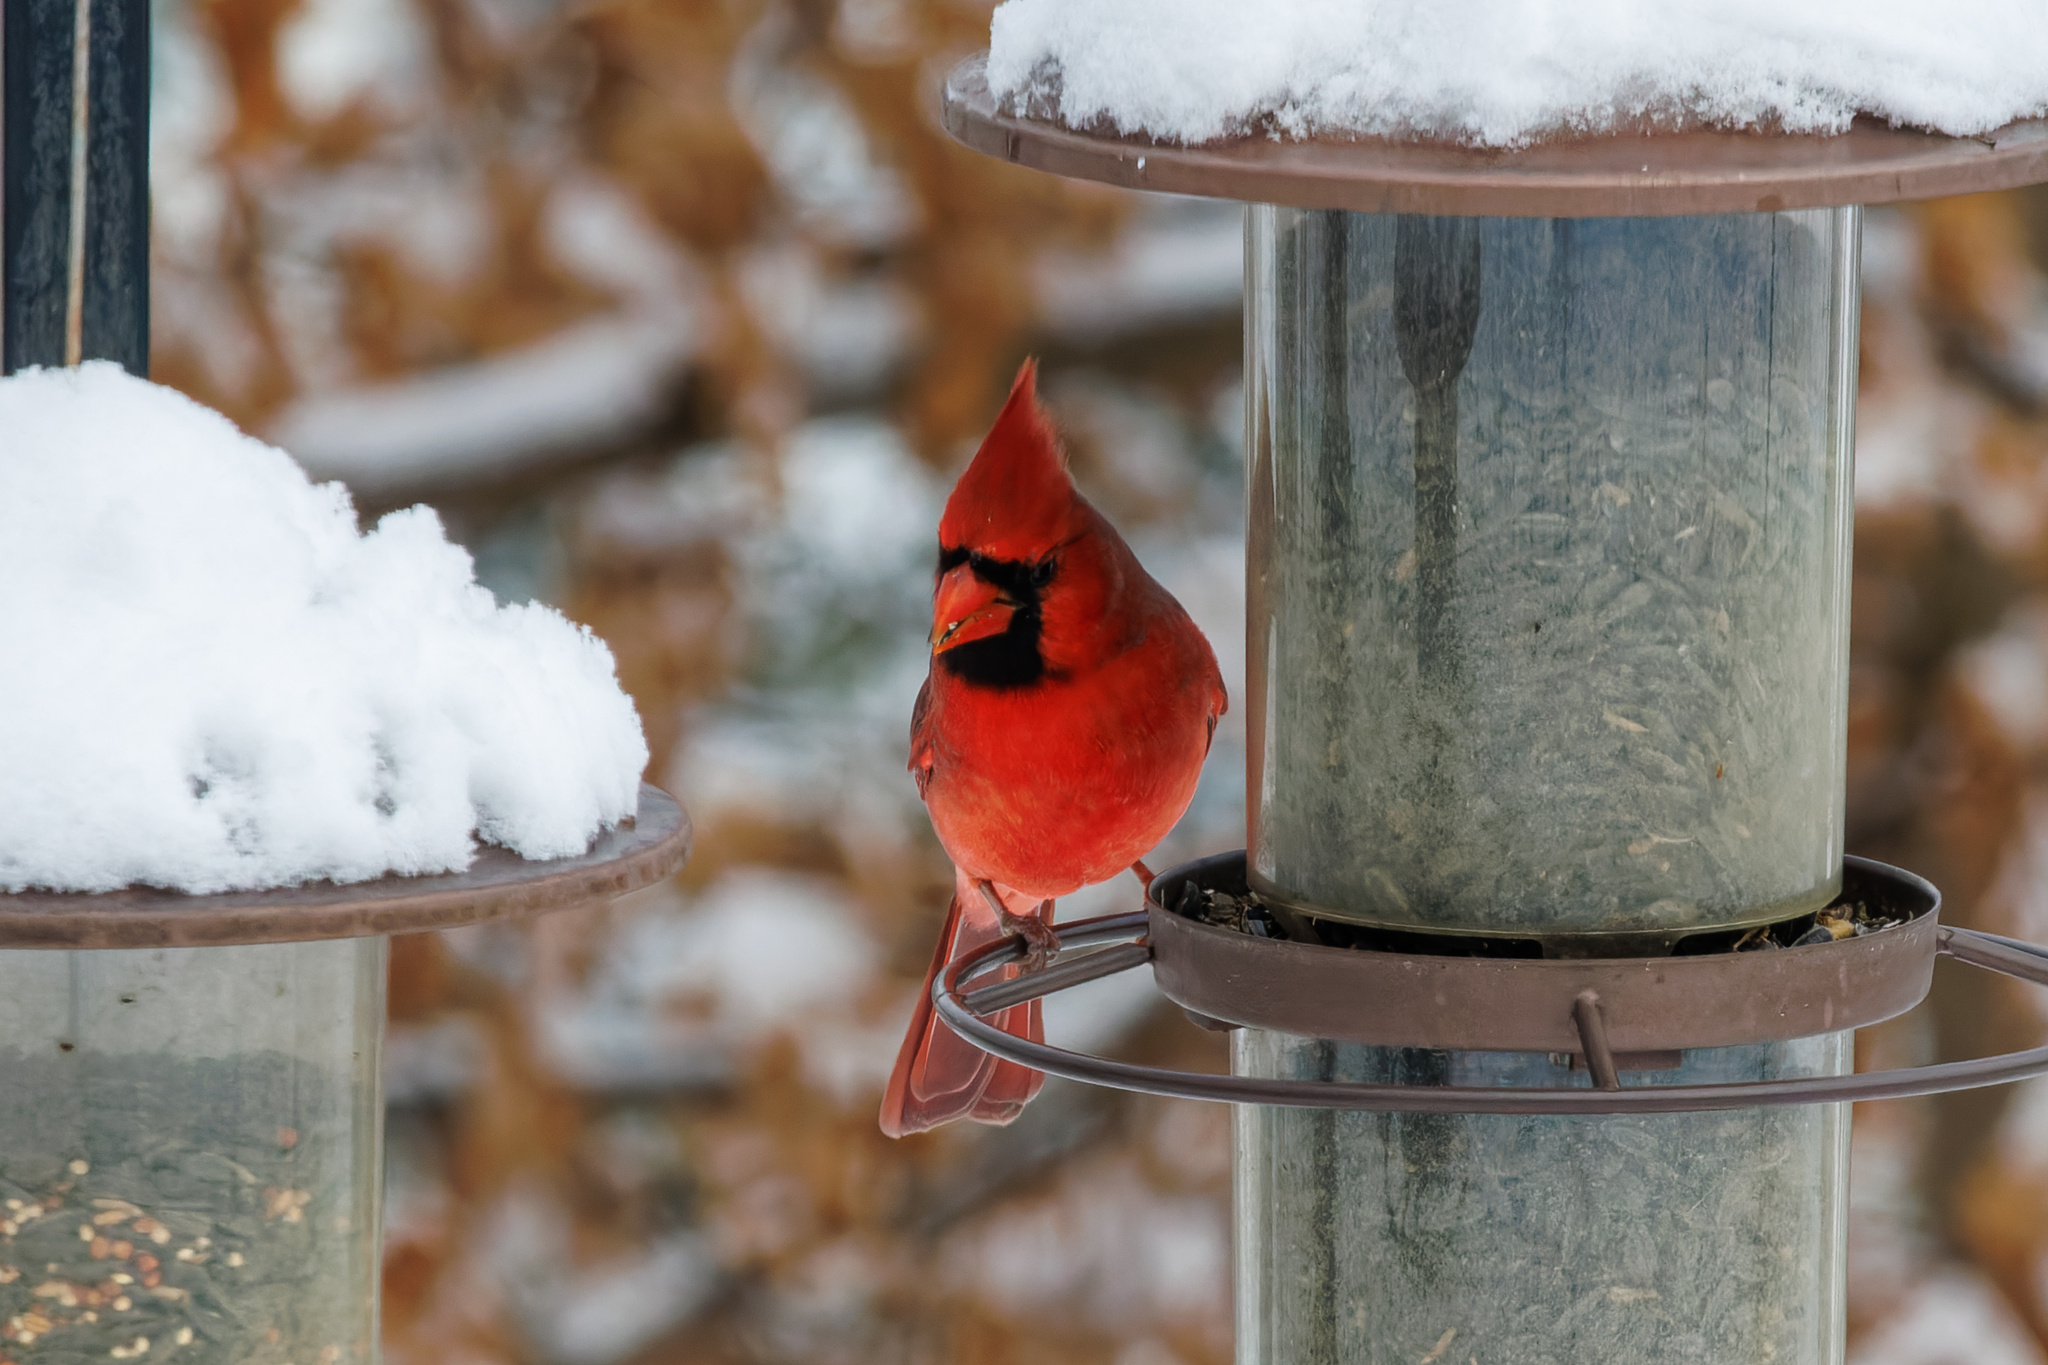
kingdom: Animalia
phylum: Chordata
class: Aves
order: Passeriformes
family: Cardinalidae
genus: Cardinalis
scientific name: Cardinalis cardinalis
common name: Northern cardinal
